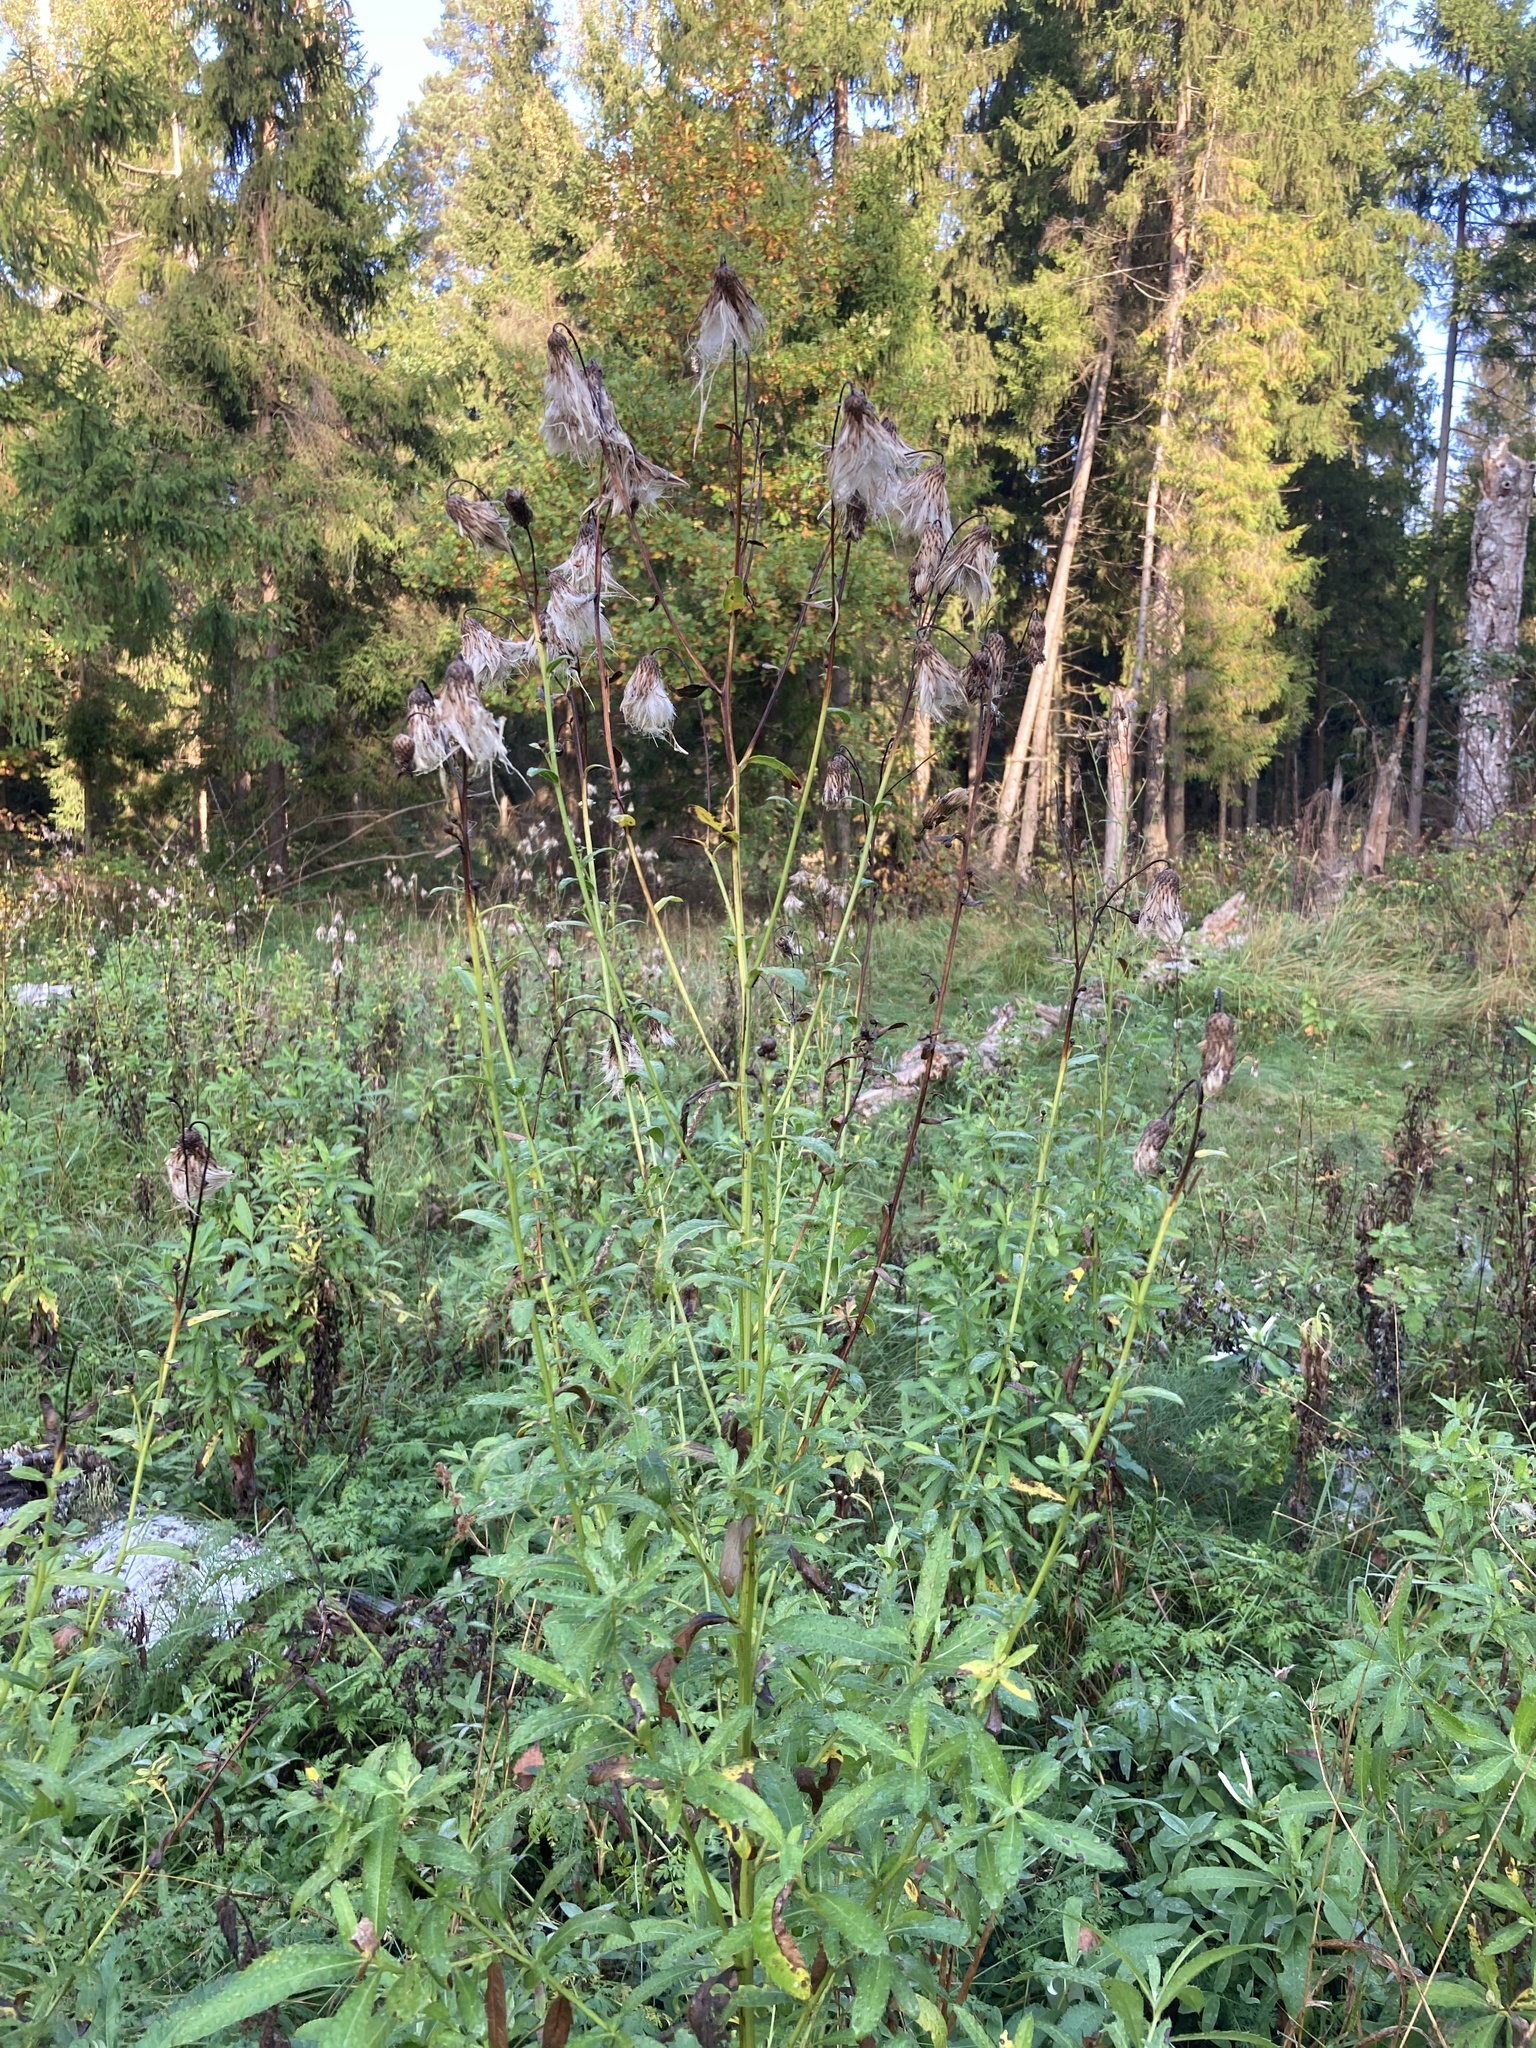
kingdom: Plantae
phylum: Tracheophyta
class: Magnoliopsida
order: Asterales
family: Asteraceae
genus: Cirsium
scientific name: Cirsium arvense
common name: Creeping thistle
